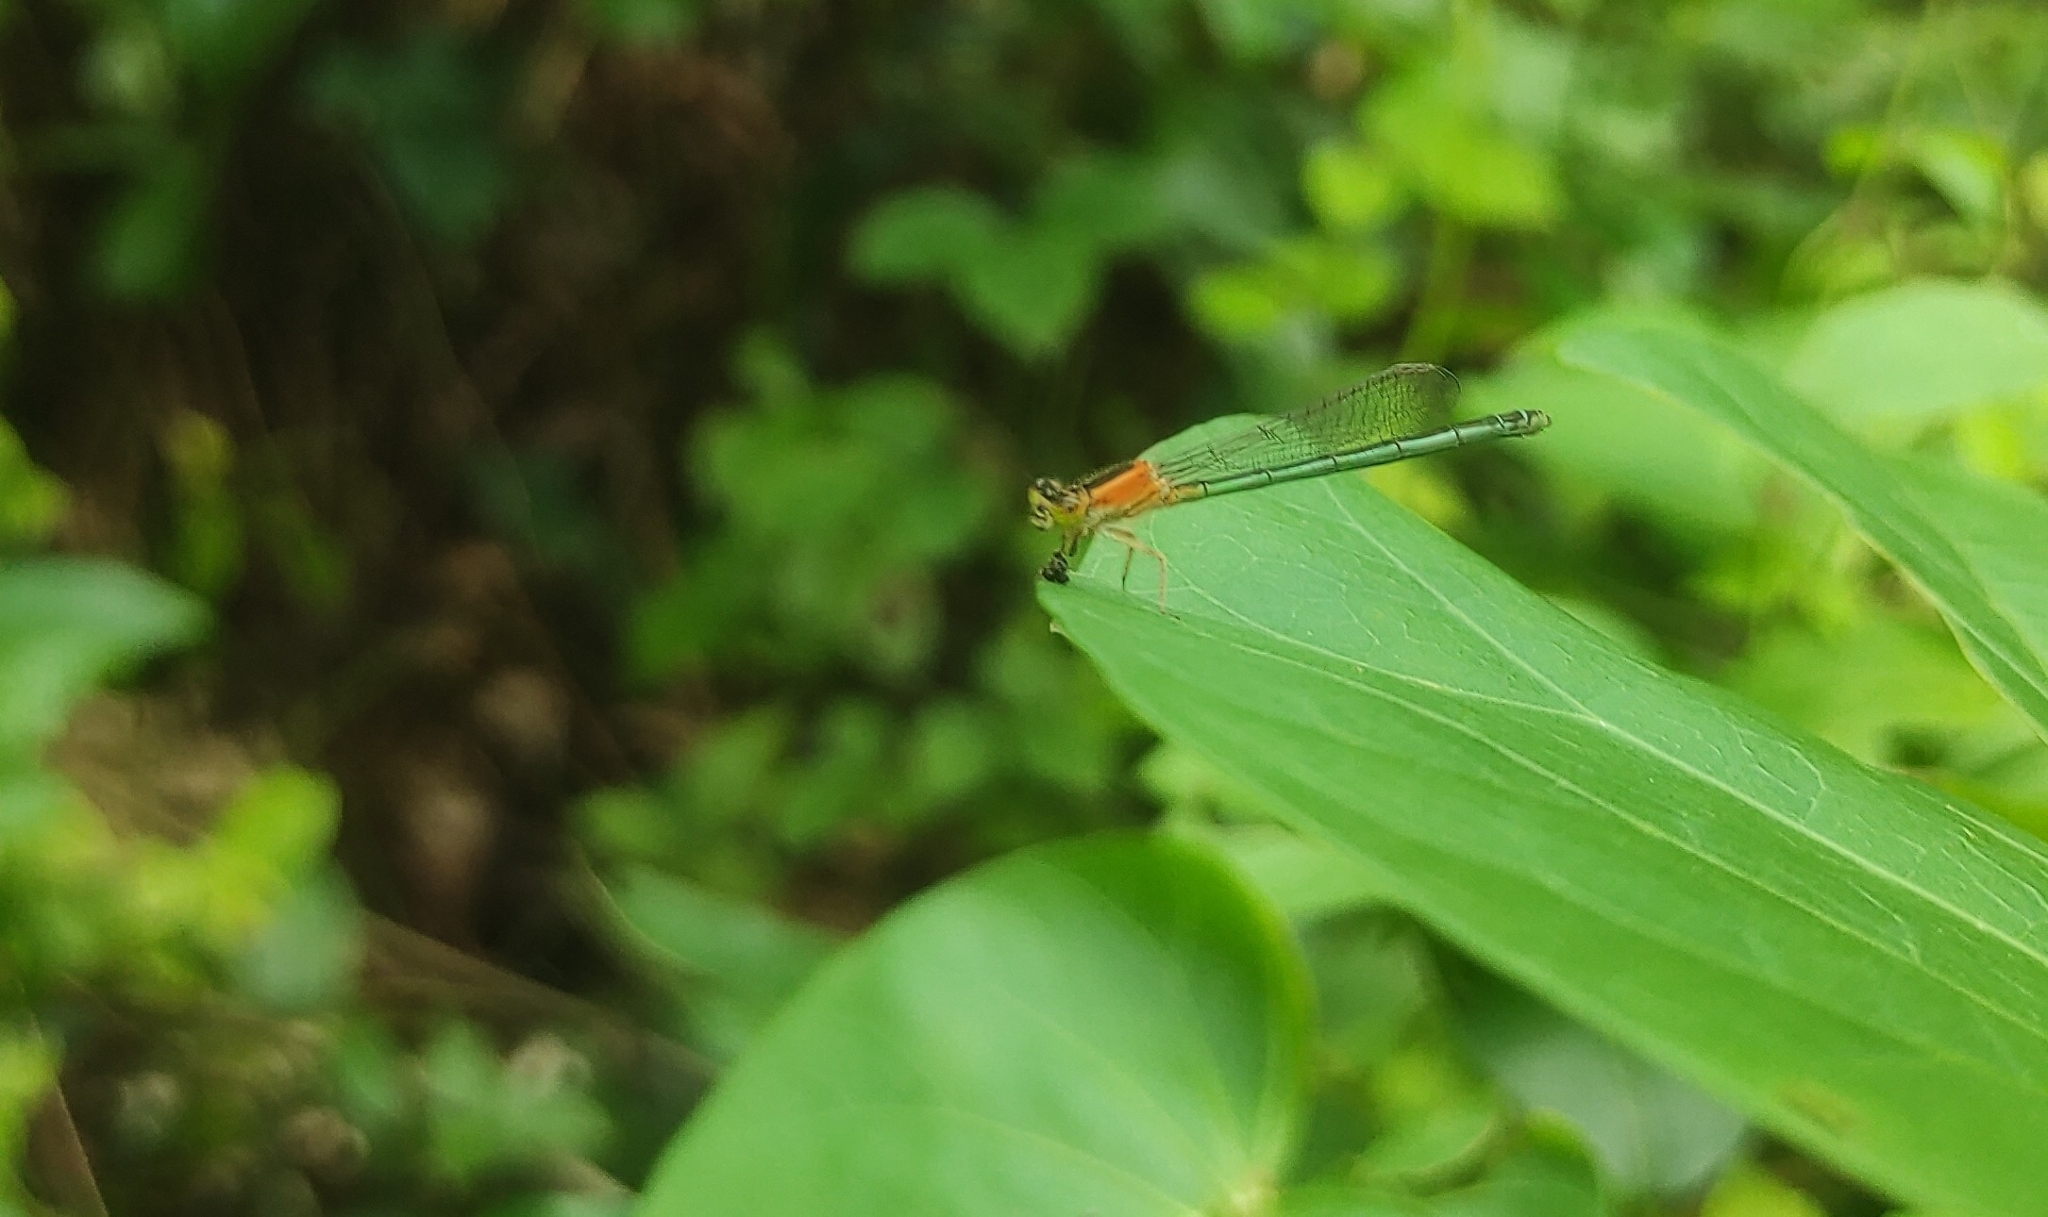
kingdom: Animalia
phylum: Arthropoda
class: Insecta
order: Odonata
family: Coenagrionidae
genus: Ischnura
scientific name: Ischnura senegalensis
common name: Tropical bluetail
